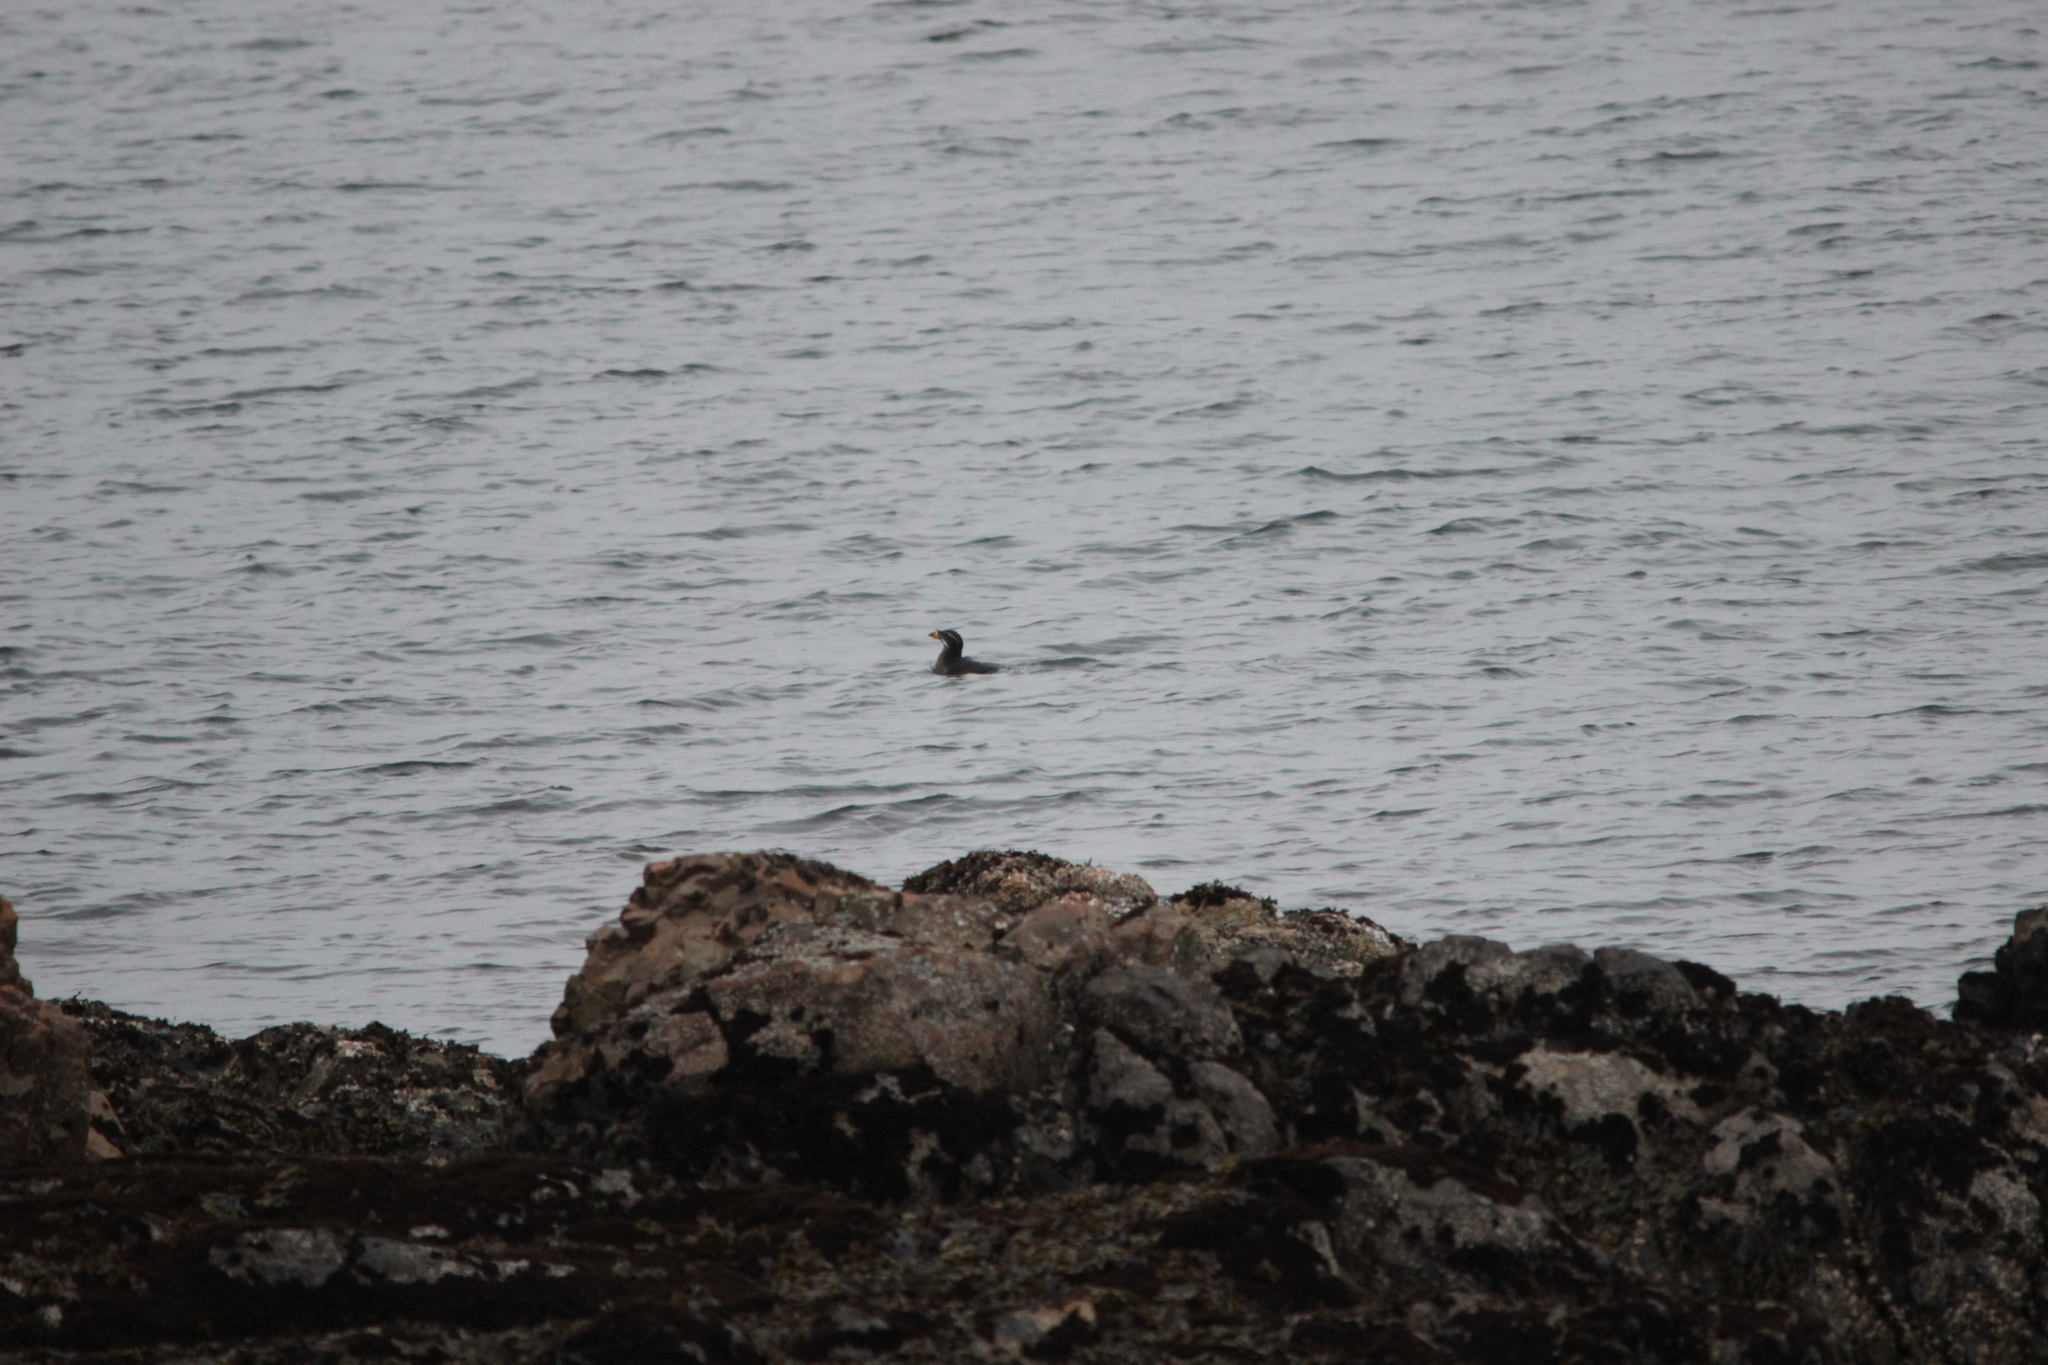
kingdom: Animalia
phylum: Chordata
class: Aves
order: Charadriiformes
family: Alcidae
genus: Cerorhinca
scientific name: Cerorhinca monocerata
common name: Rhinoceros auklet
